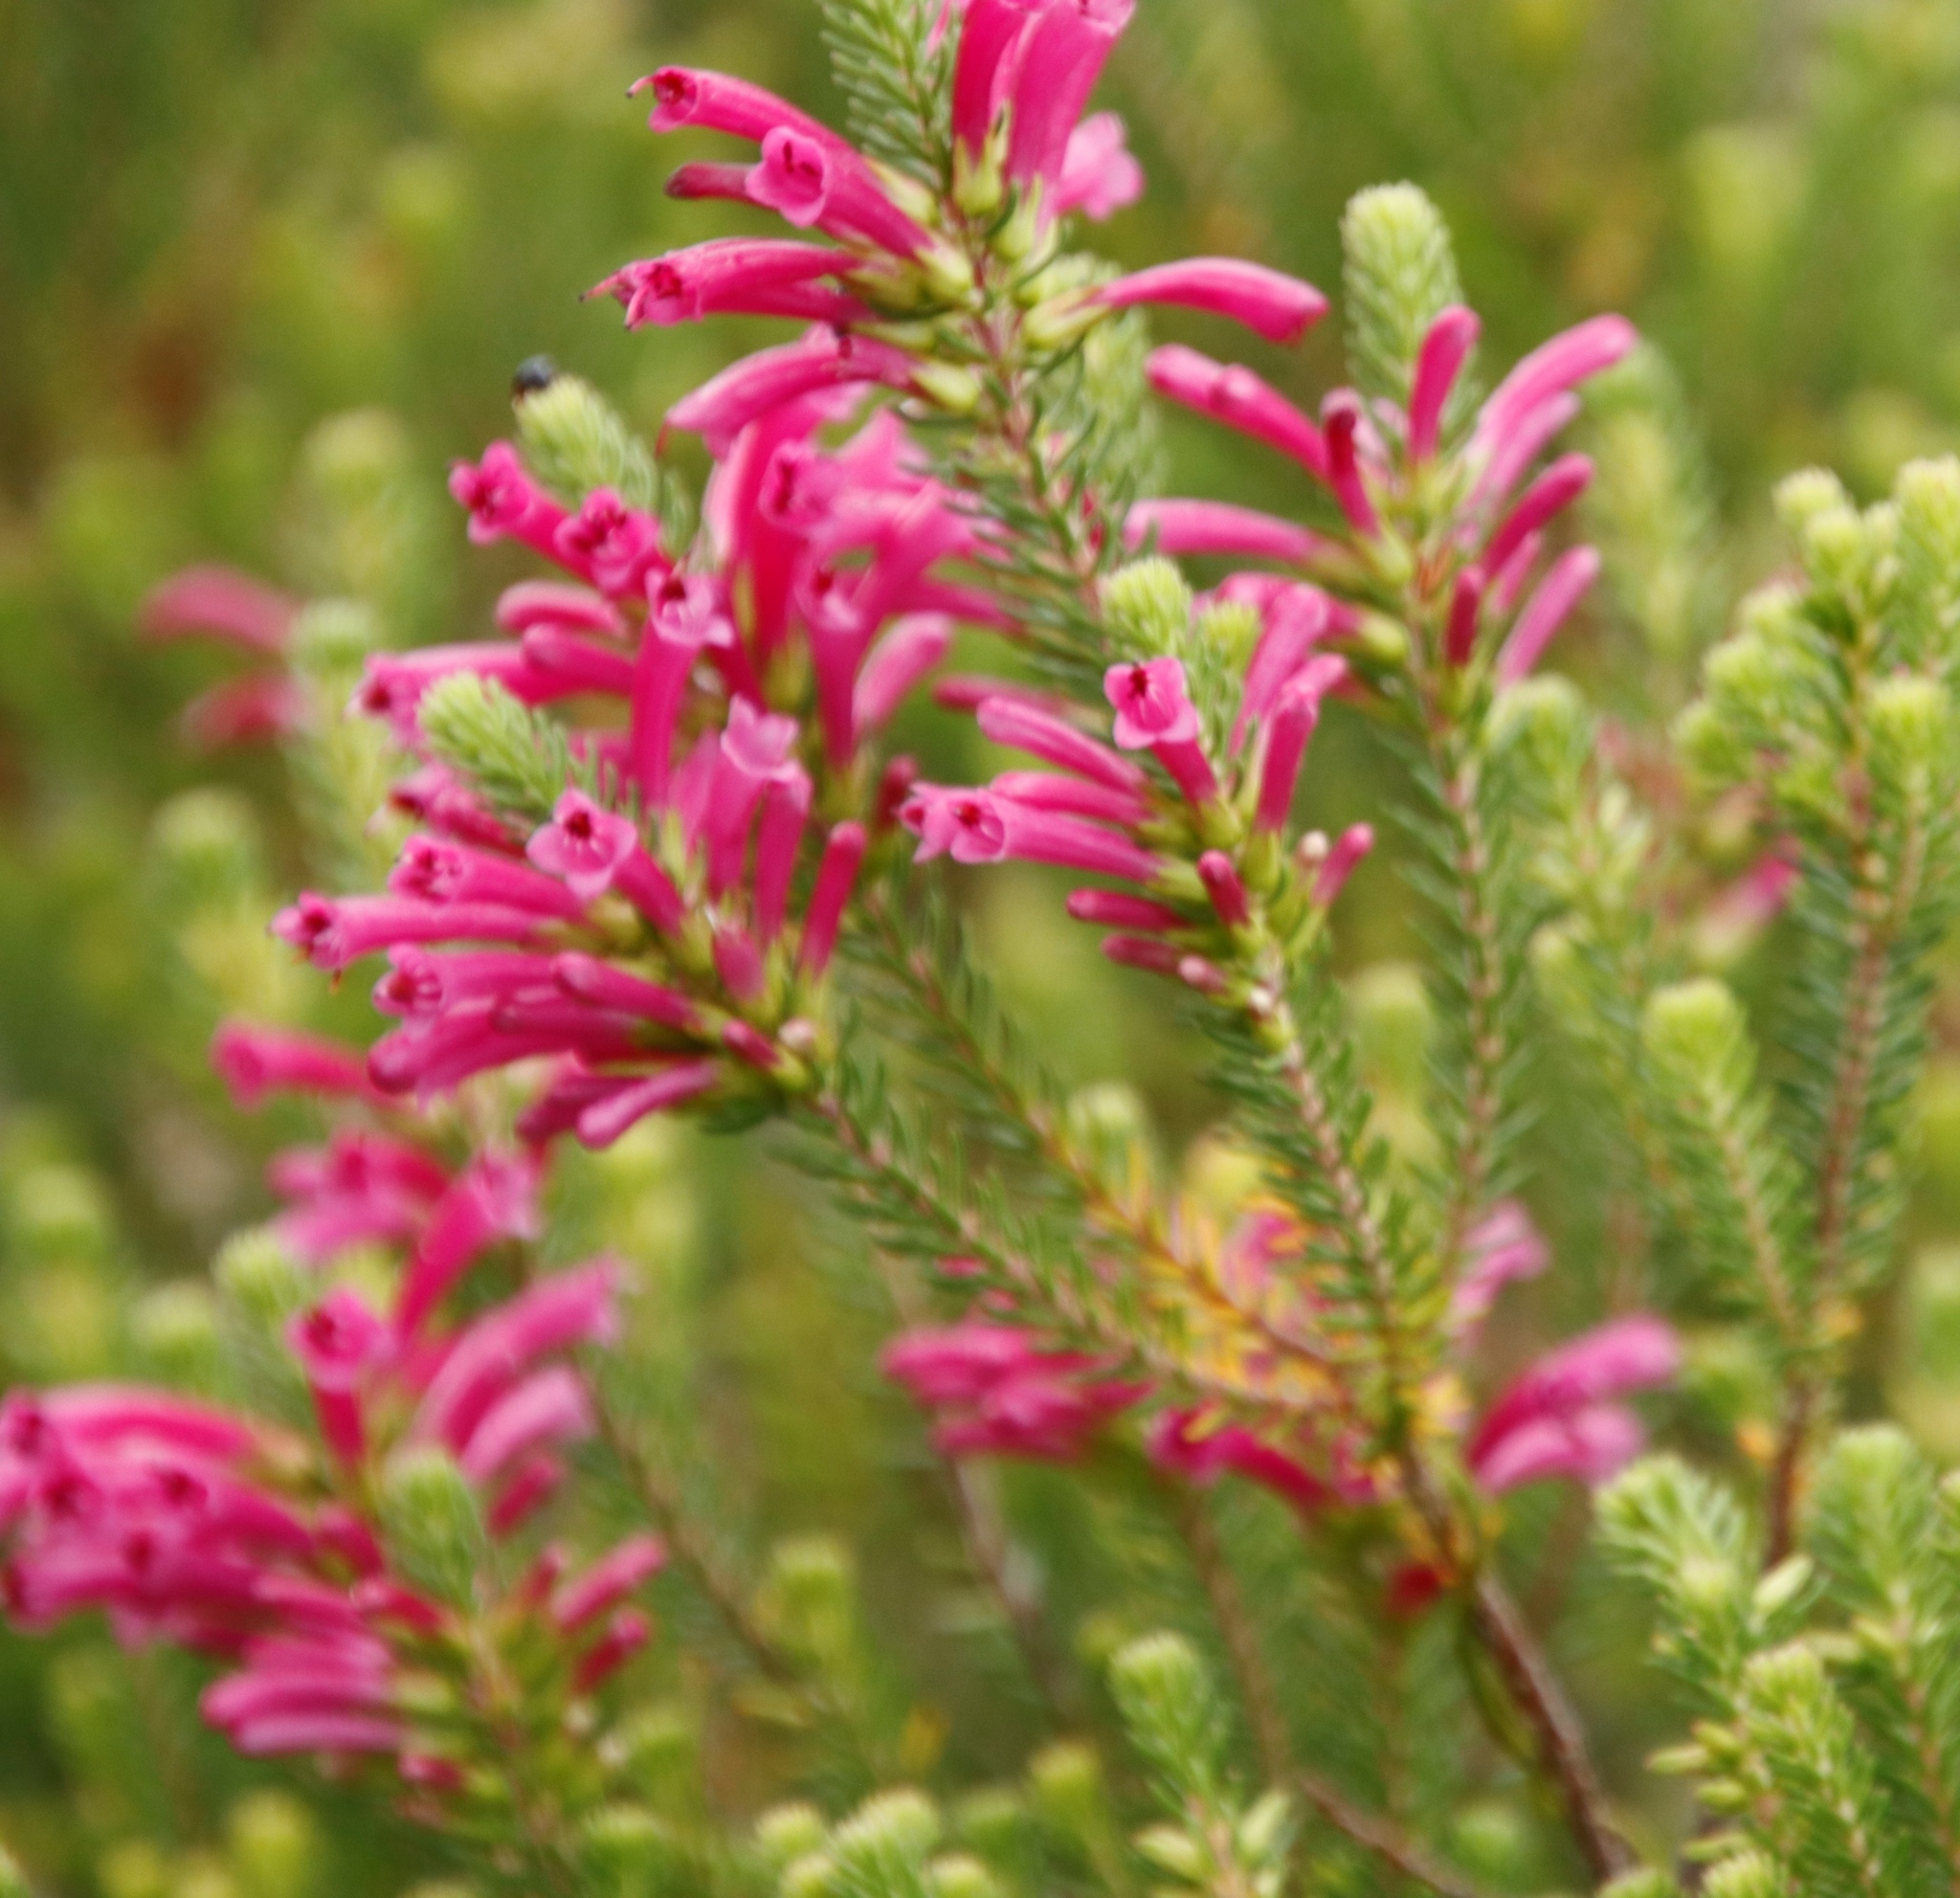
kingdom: Plantae
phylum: Tracheophyta
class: Magnoliopsida
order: Ericales
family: Ericaceae
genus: Erica
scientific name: Erica abietina
